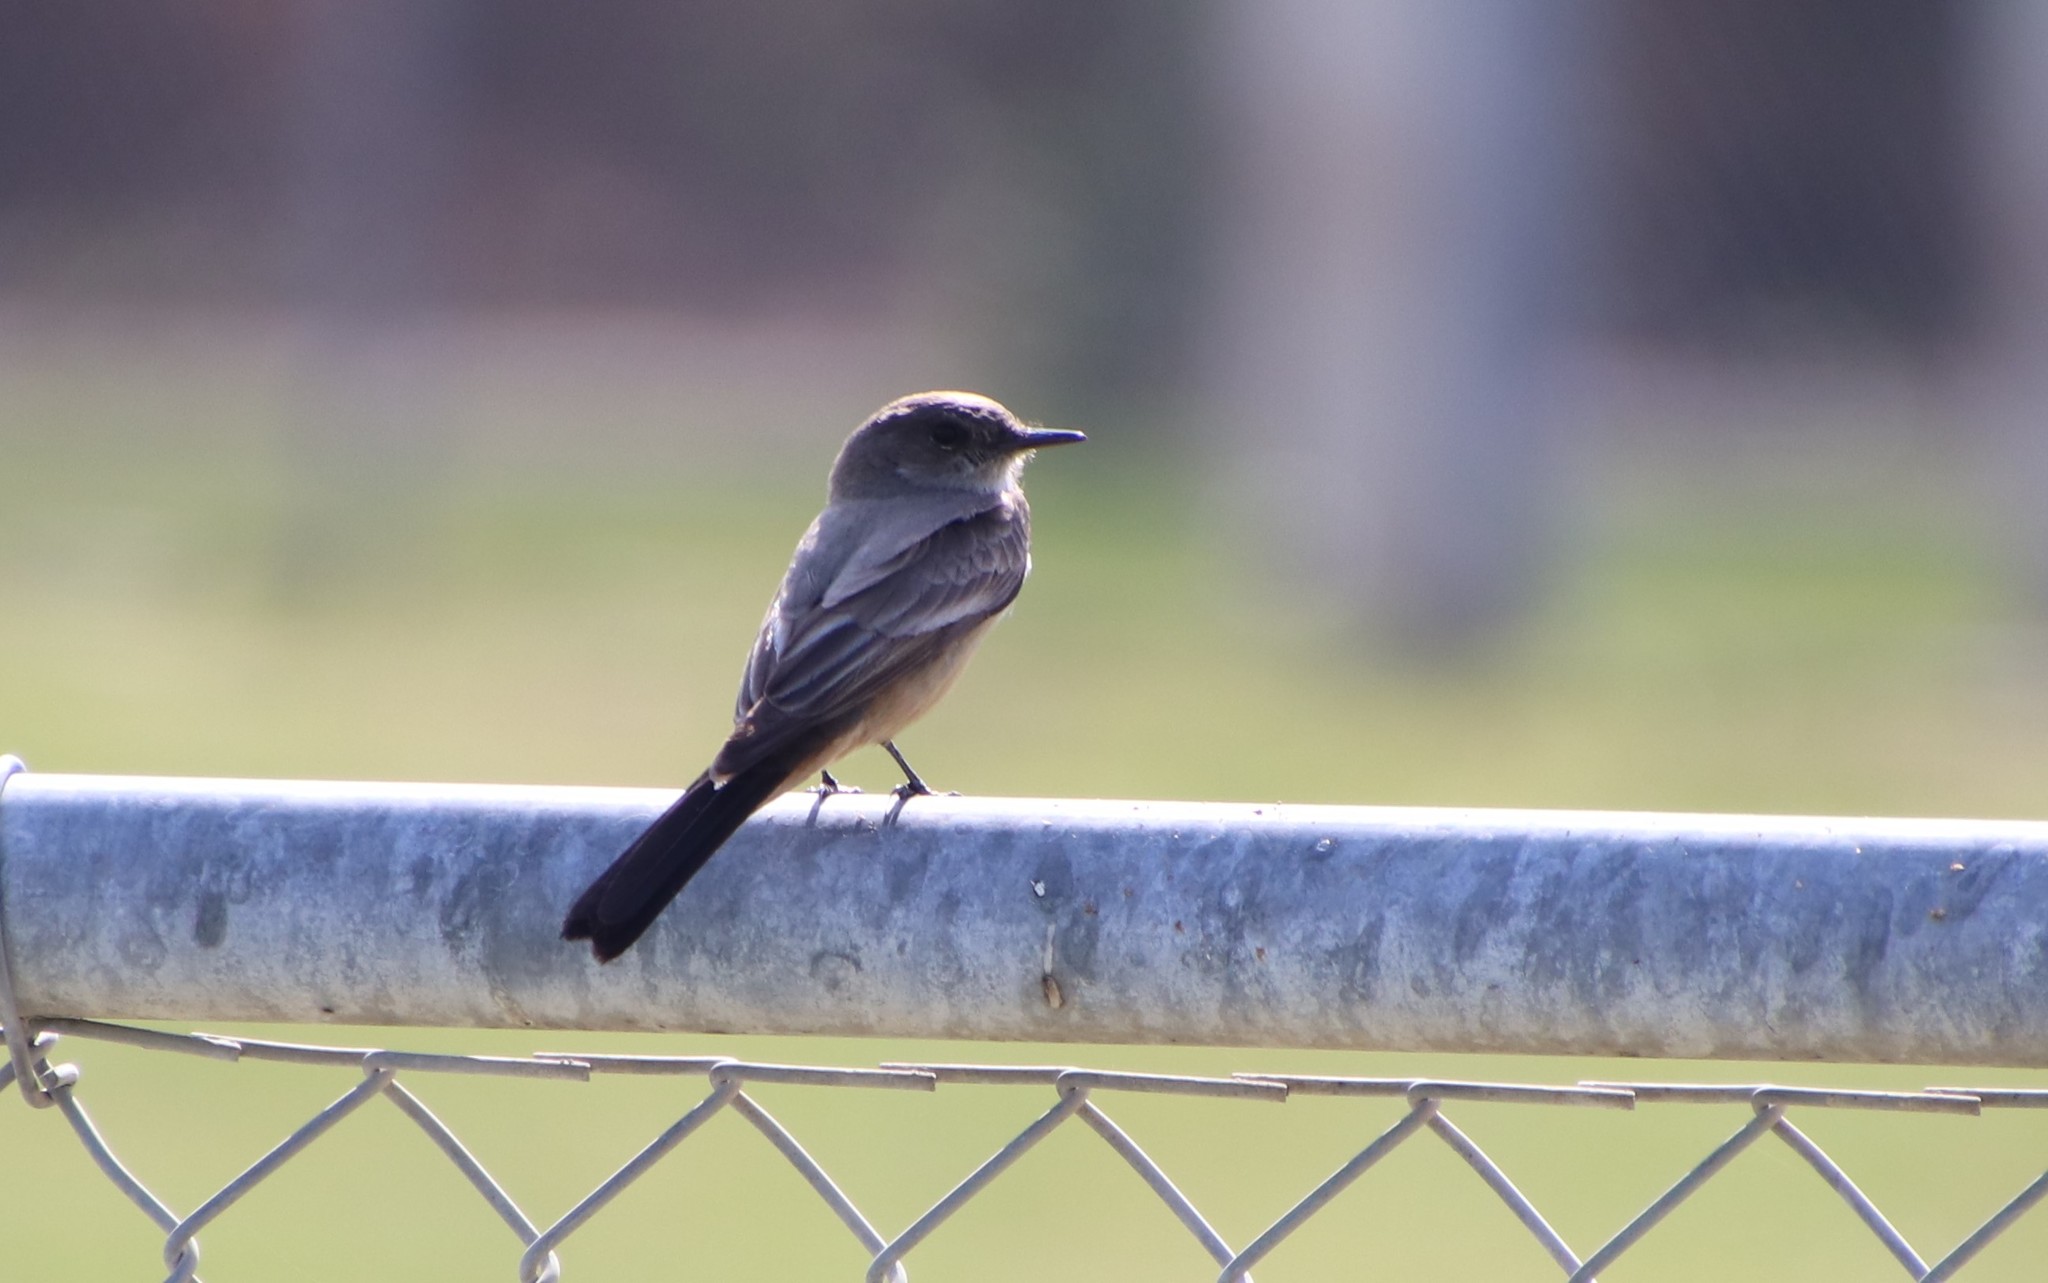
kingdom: Animalia
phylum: Chordata
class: Aves
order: Passeriformes
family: Tyrannidae
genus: Sayornis
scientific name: Sayornis saya
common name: Say's phoebe
